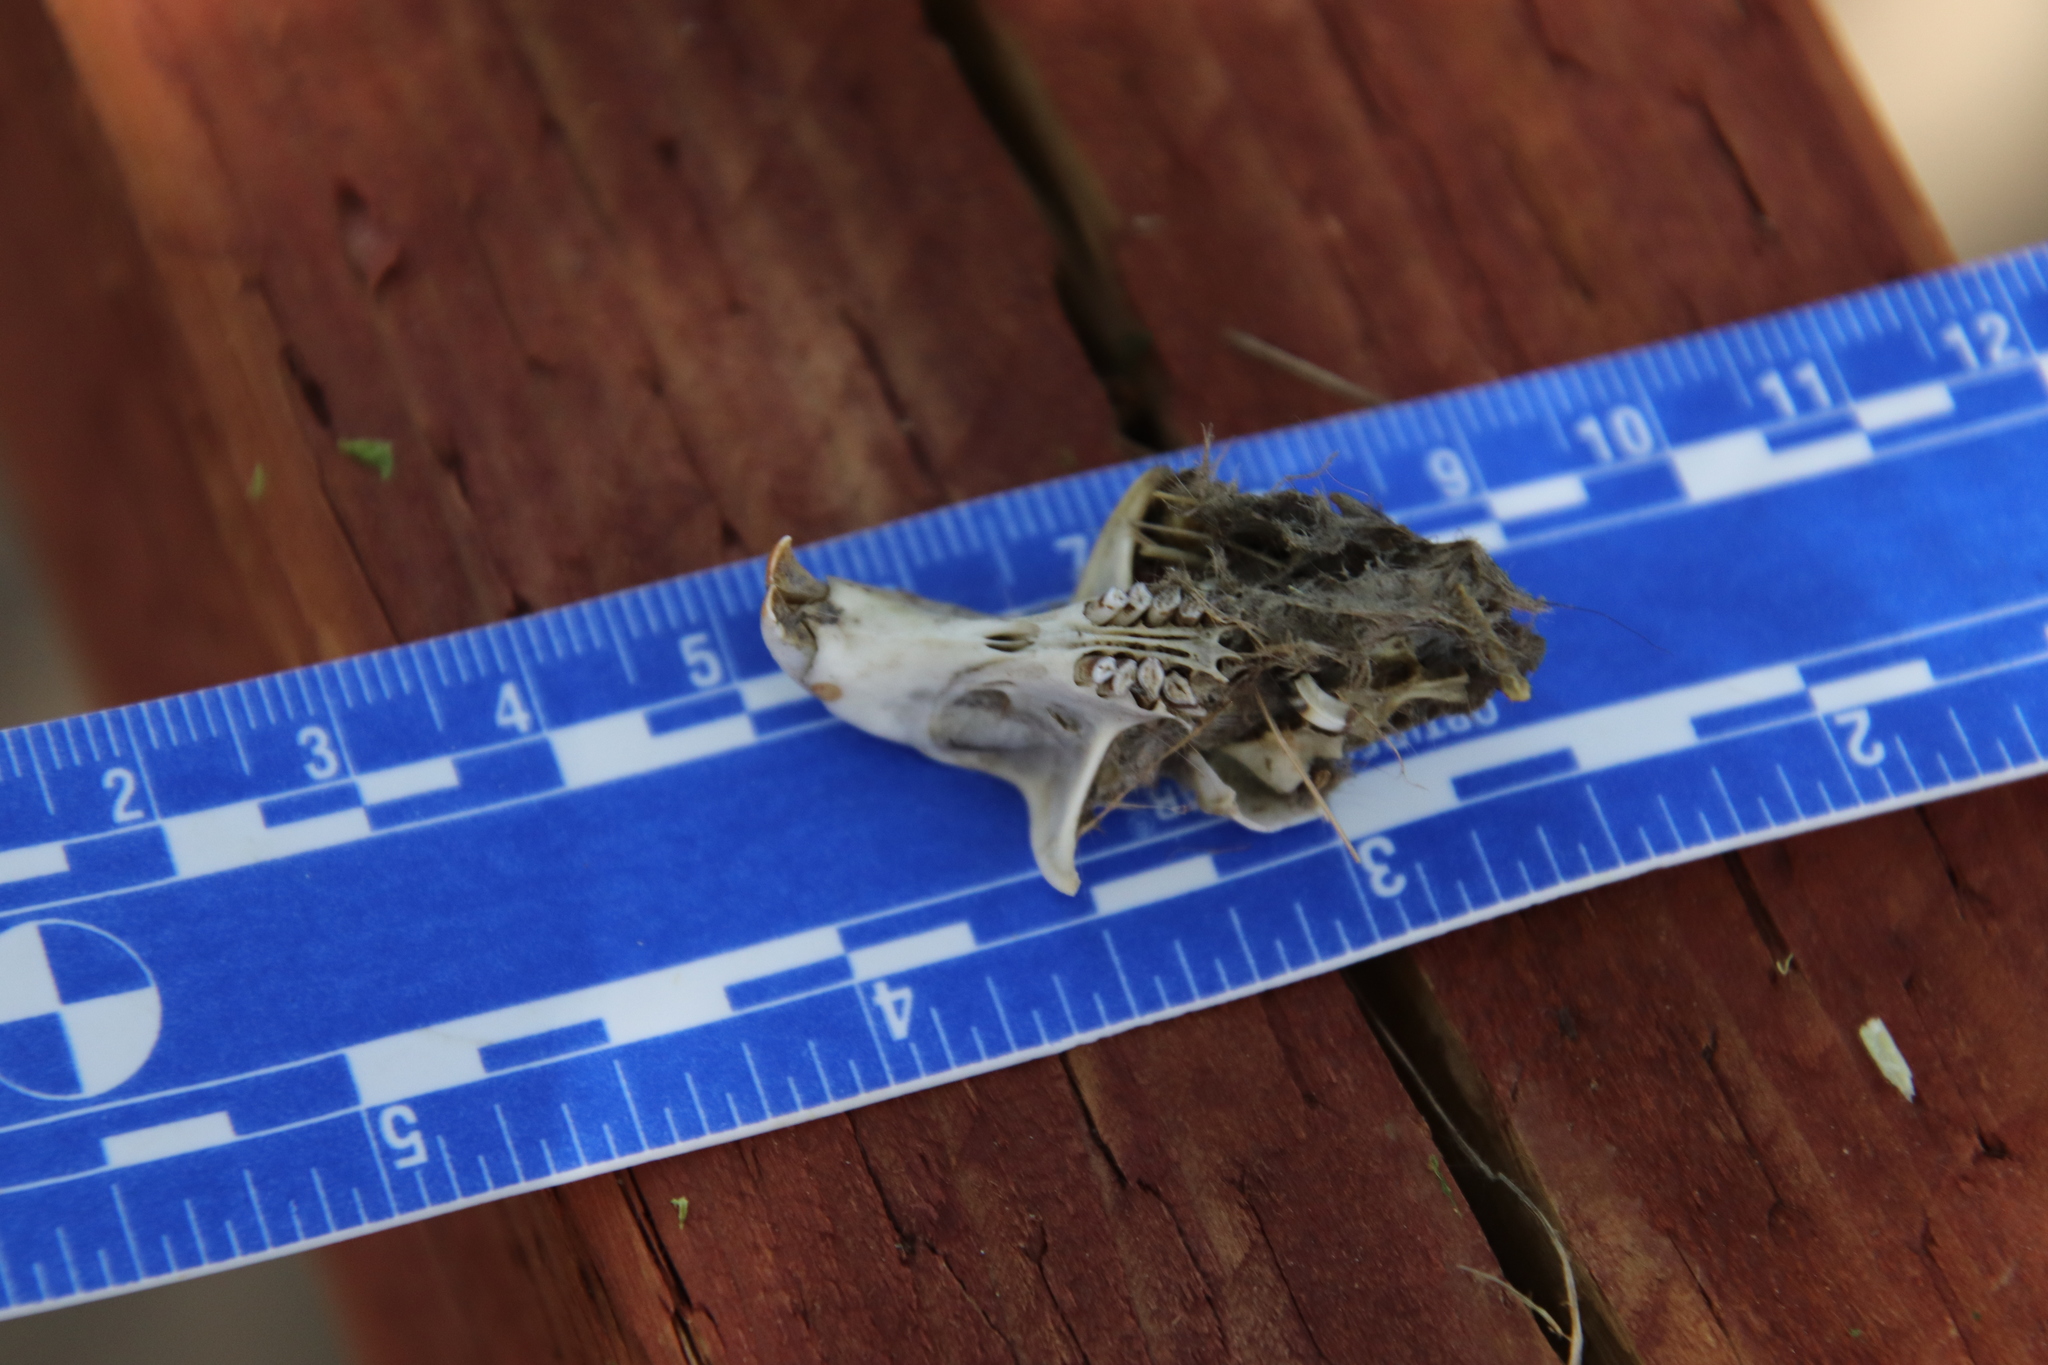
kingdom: Animalia
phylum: Chordata
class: Mammalia
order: Rodentia
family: Geomyidae
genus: Thomomys
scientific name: Thomomys bottae
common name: Botta's pocket gopher
